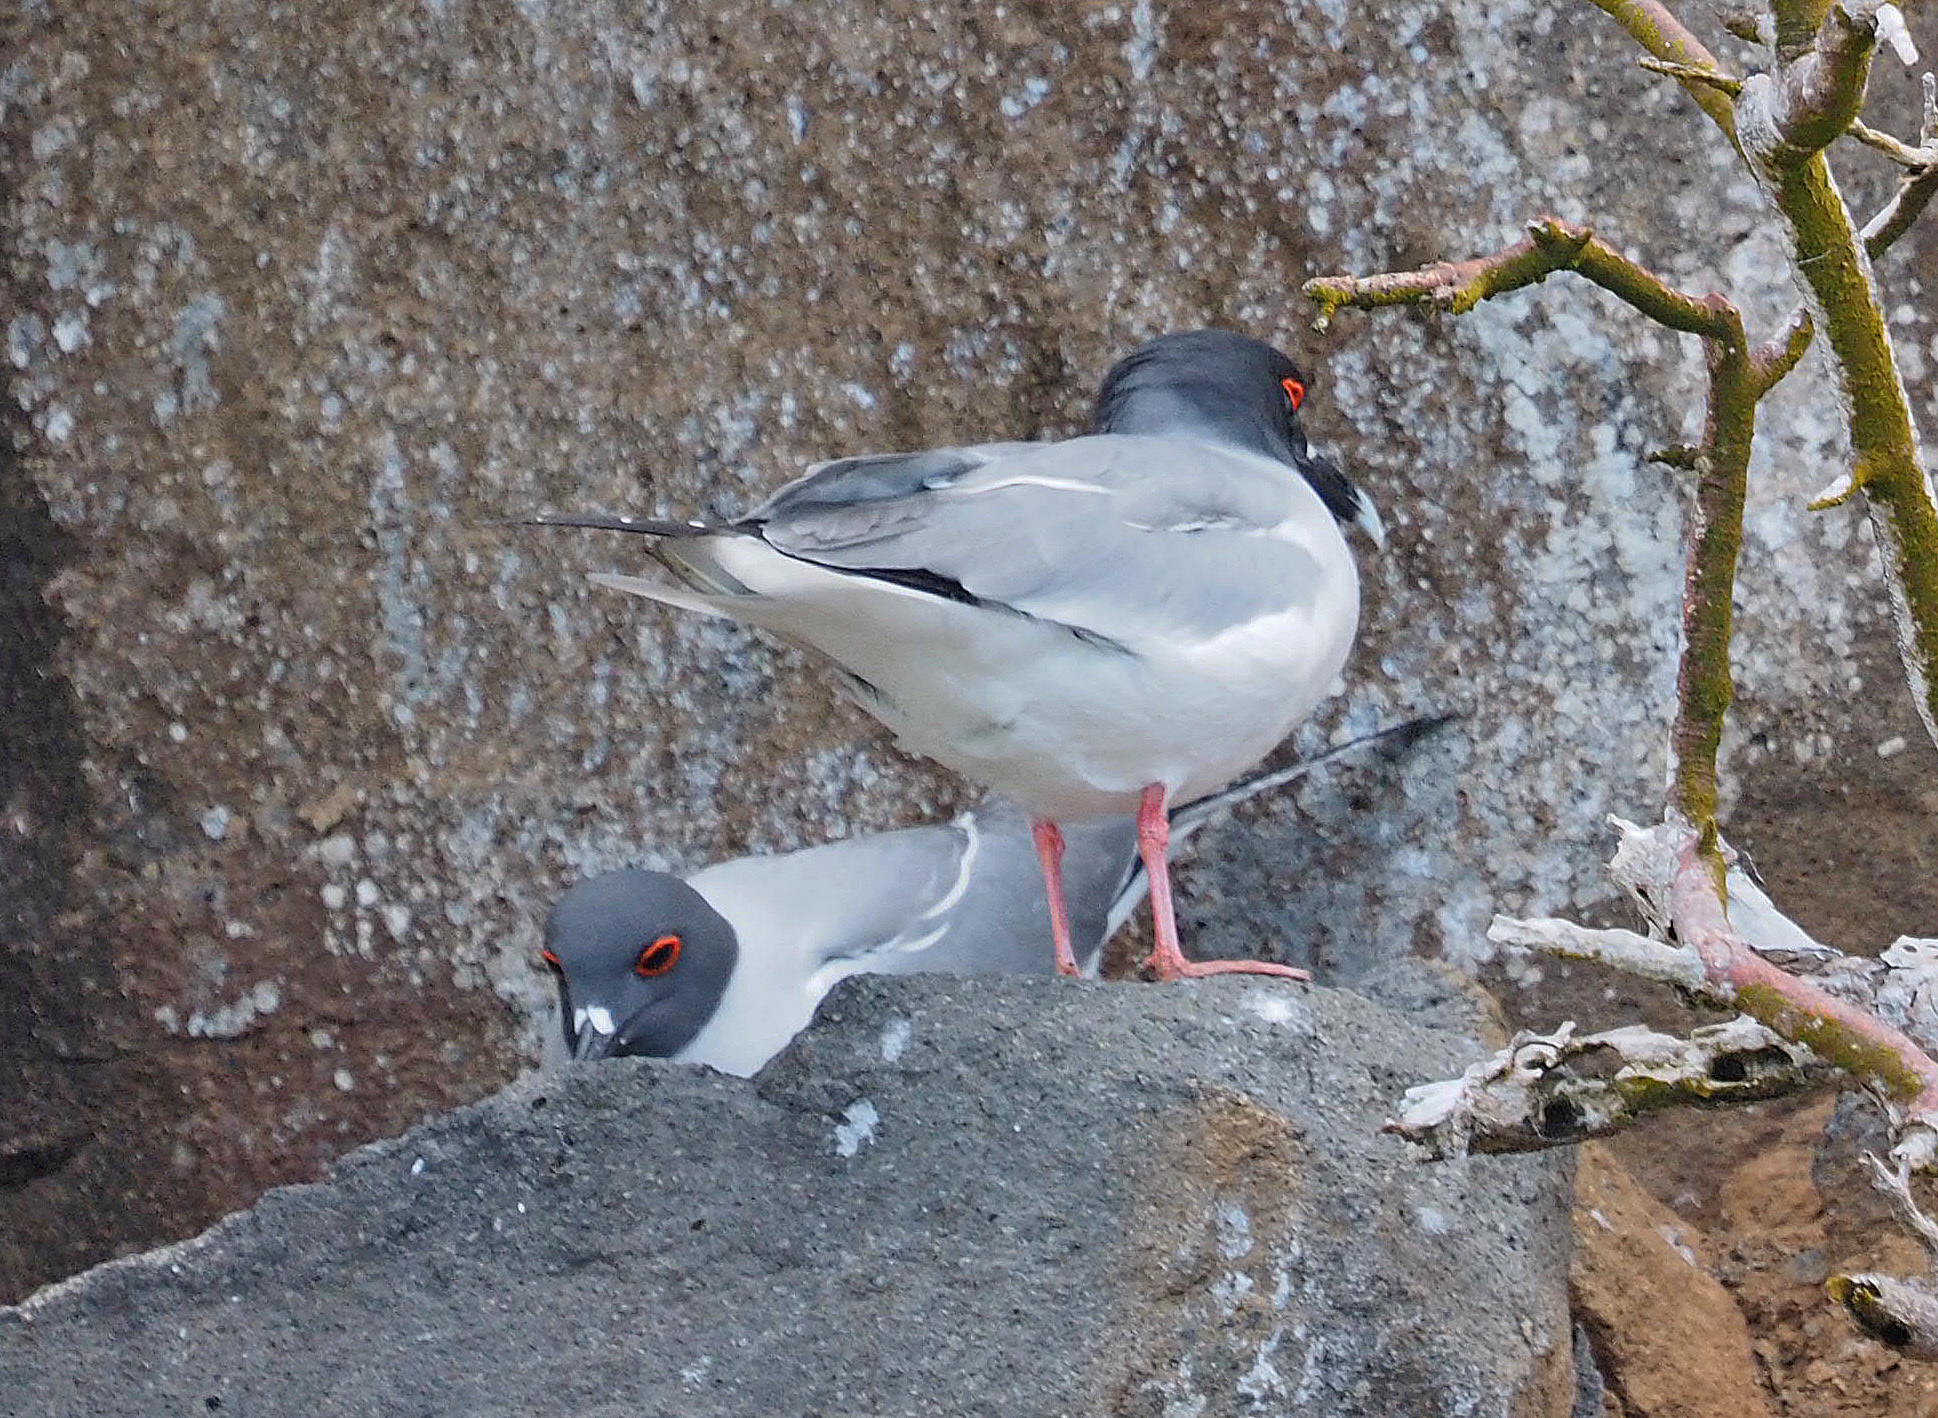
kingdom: Animalia
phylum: Chordata
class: Aves
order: Charadriiformes
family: Laridae
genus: Creagrus
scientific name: Creagrus furcatus
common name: Swallow-tailed gull
